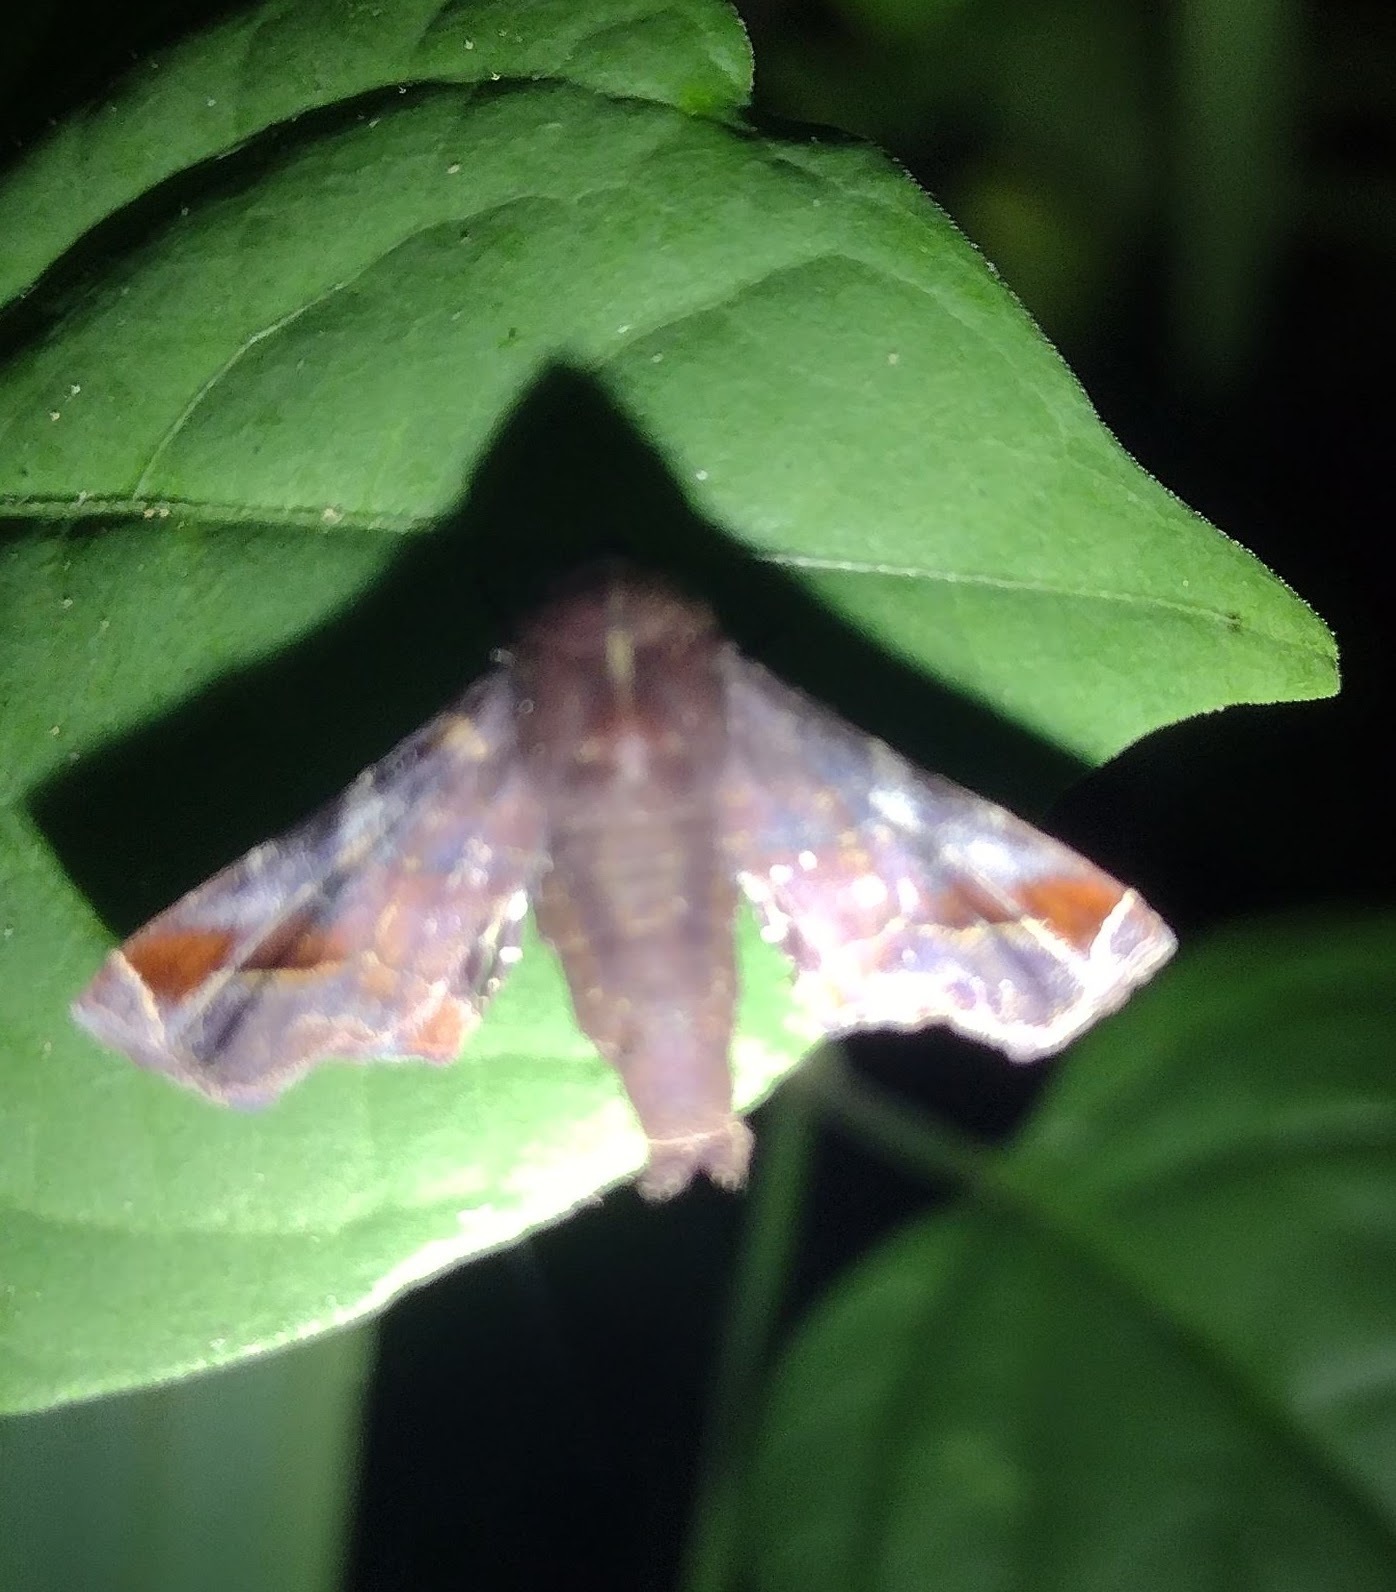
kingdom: Animalia
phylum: Arthropoda
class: Insecta
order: Lepidoptera
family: Euteliidae
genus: Penicillaria
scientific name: Penicillaria jocosatrix
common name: Mango shoot borer
